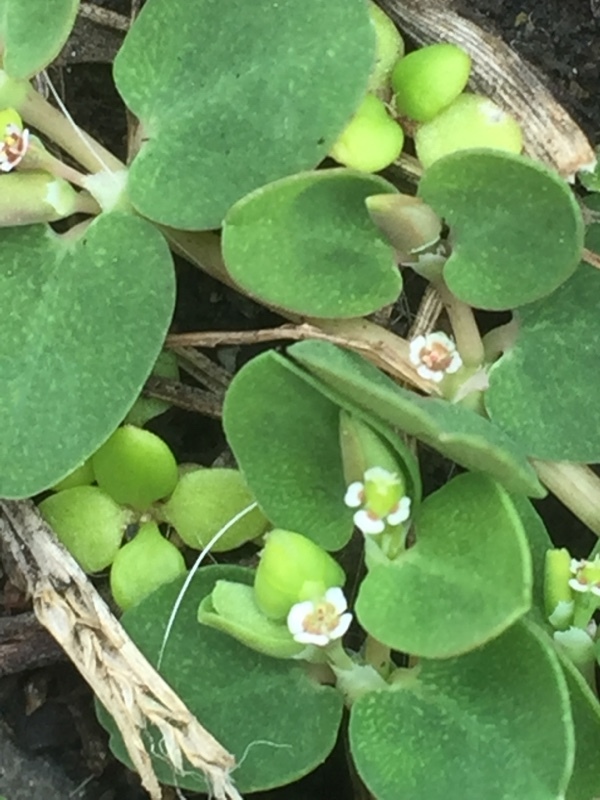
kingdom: Plantae
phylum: Tracheophyta
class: Magnoliopsida
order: Malpighiales
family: Euphorbiaceae
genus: Euphorbia
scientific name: Euphorbia serpens
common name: Matted sandmat
